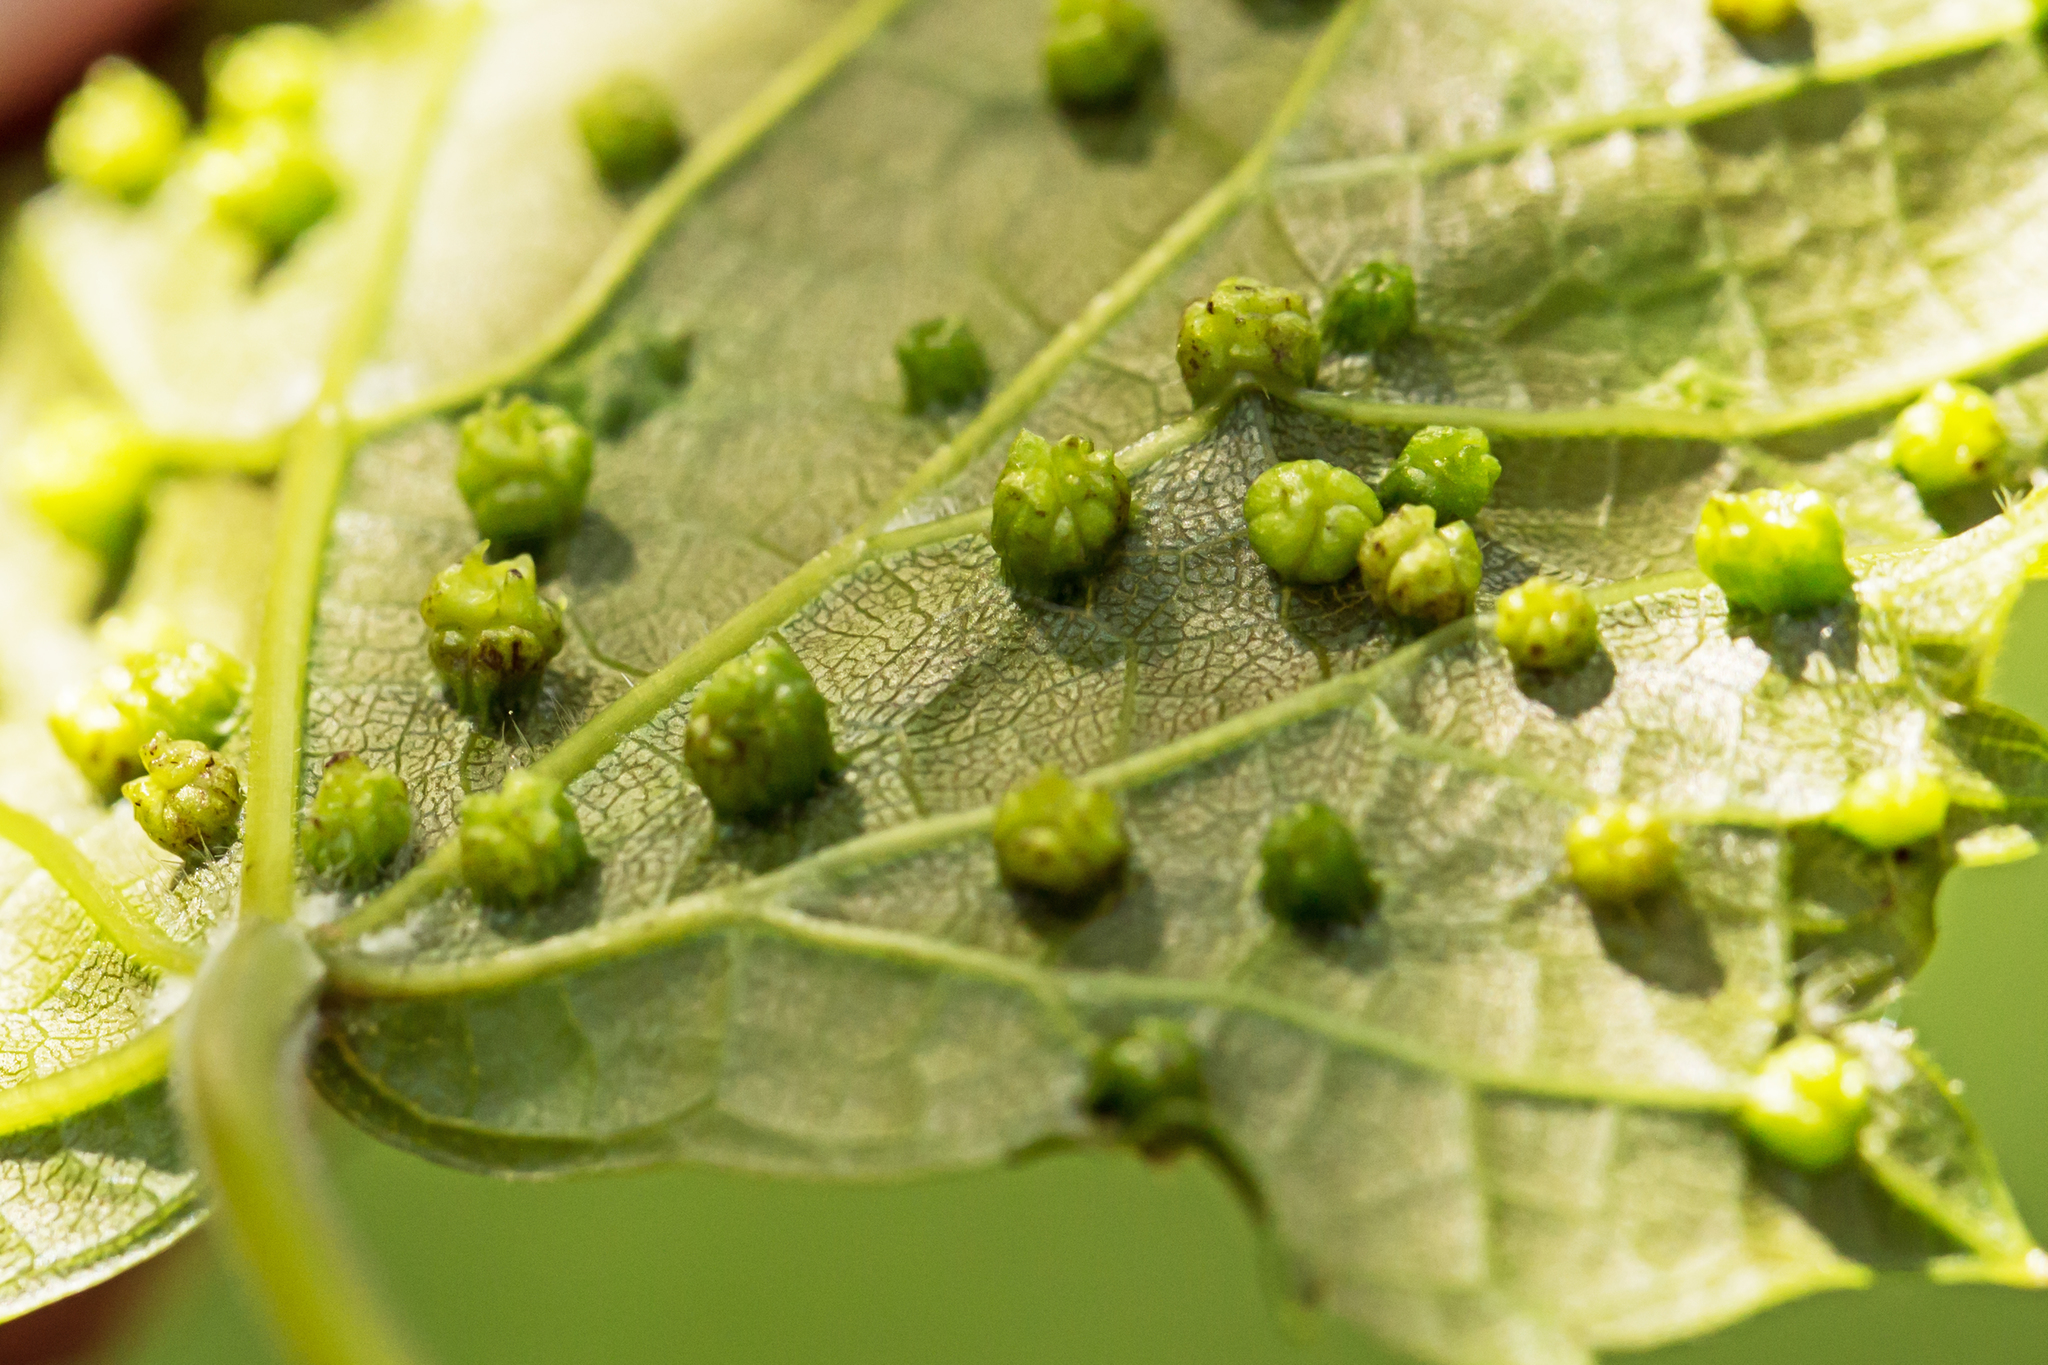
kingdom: Animalia
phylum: Arthropoda
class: Insecta
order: Hemiptera
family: Phylloxeridae
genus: Daktulosphaira
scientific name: Daktulosphaira vitifoliae
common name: Grape phylloxera
